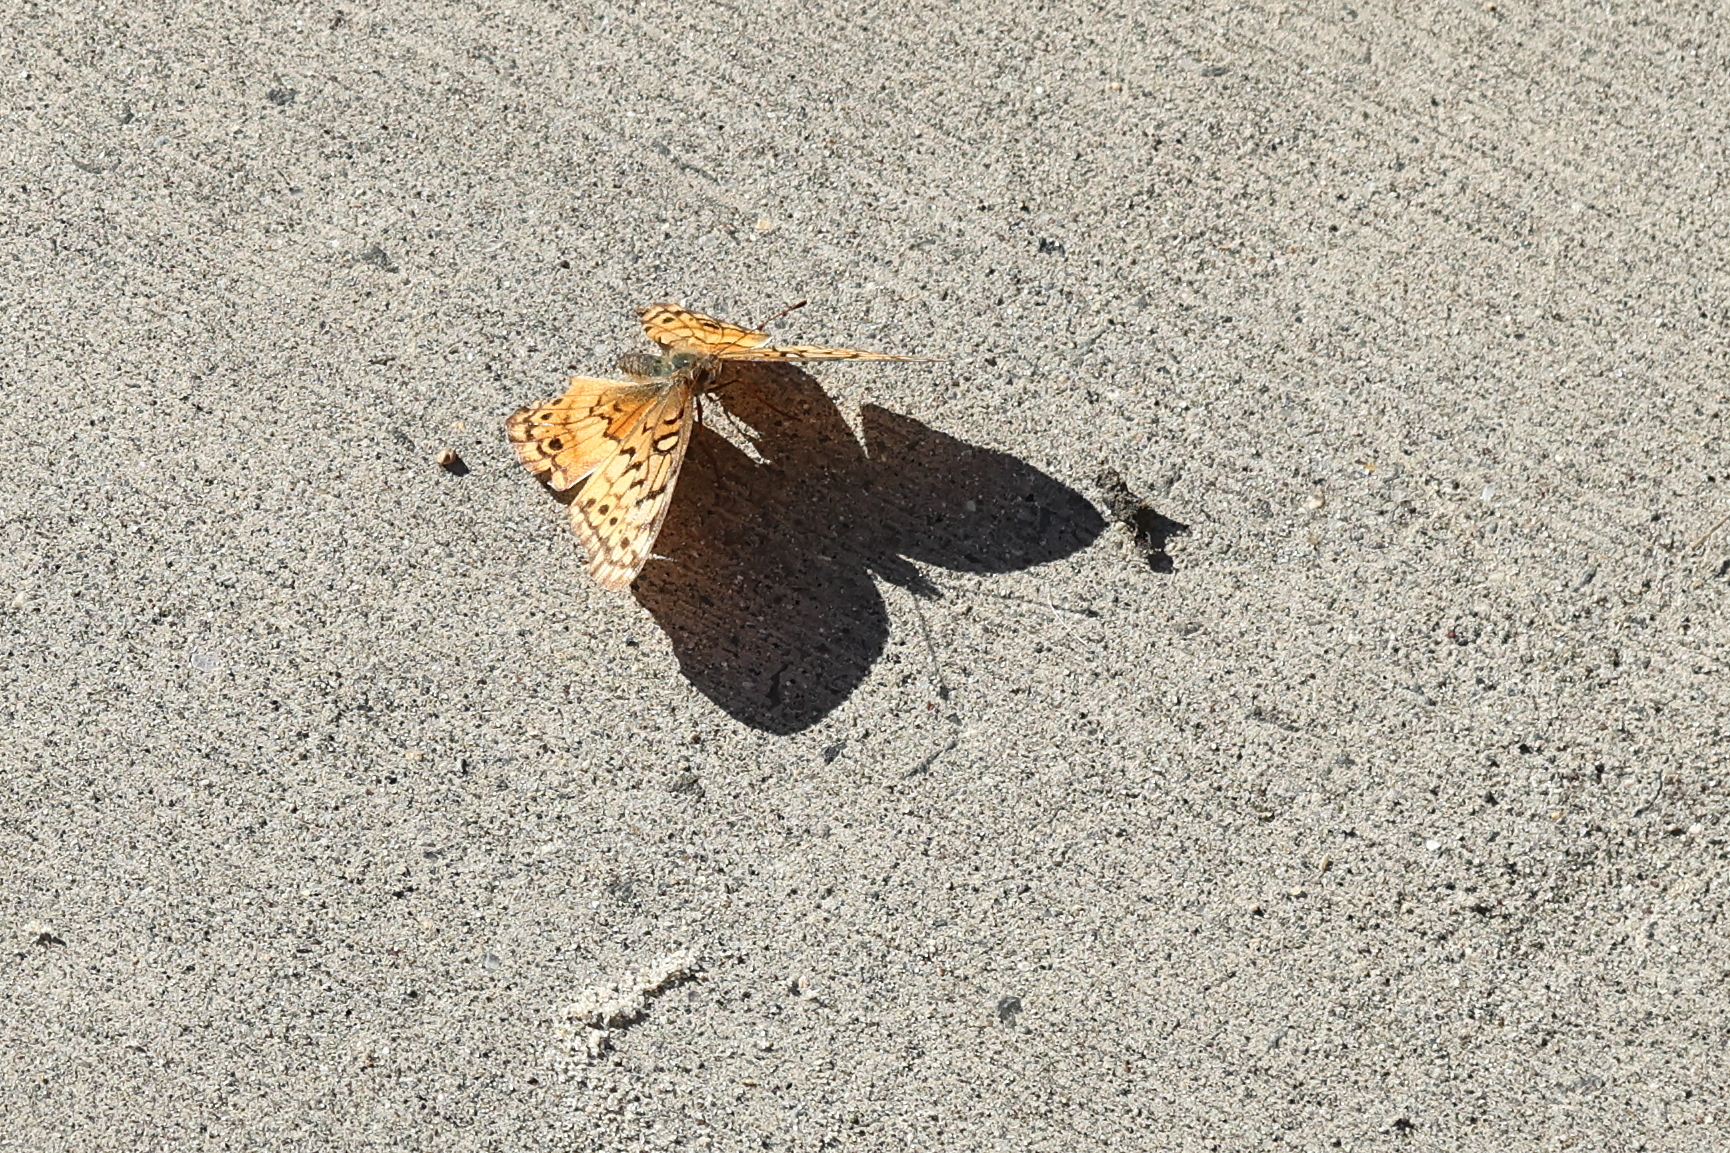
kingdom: Animalia
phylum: Arthropoda
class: Insecta
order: Lepidoptera
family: Nymphalidae
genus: Euptoieta
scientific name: Euptoieta claudia
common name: Variegated fritillary
